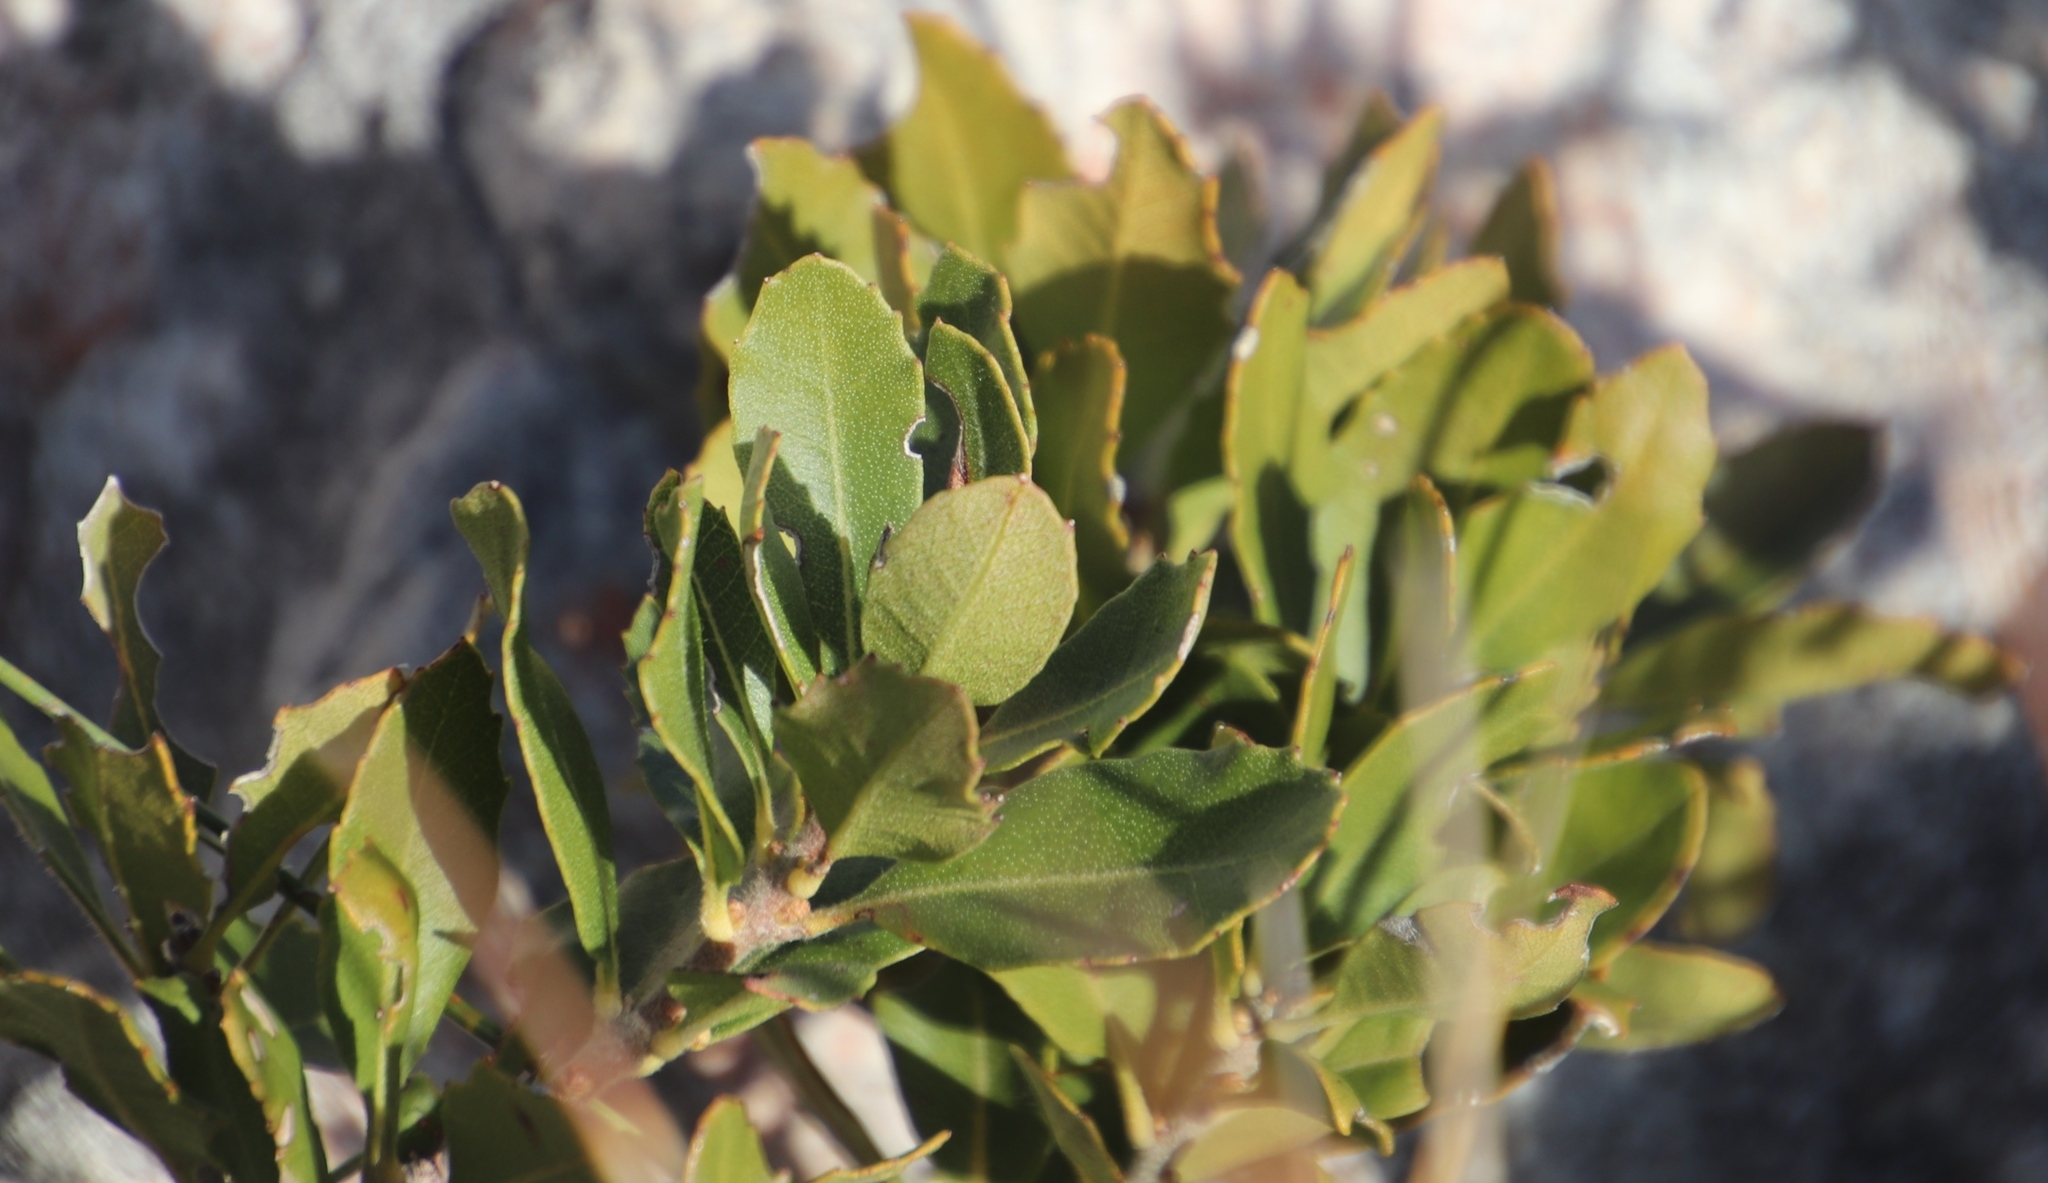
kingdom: Plantae
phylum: Tracheophyta
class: Magnoliopsida
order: Fagales
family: Myricaceae
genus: Morella
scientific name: Morella diversifolia
